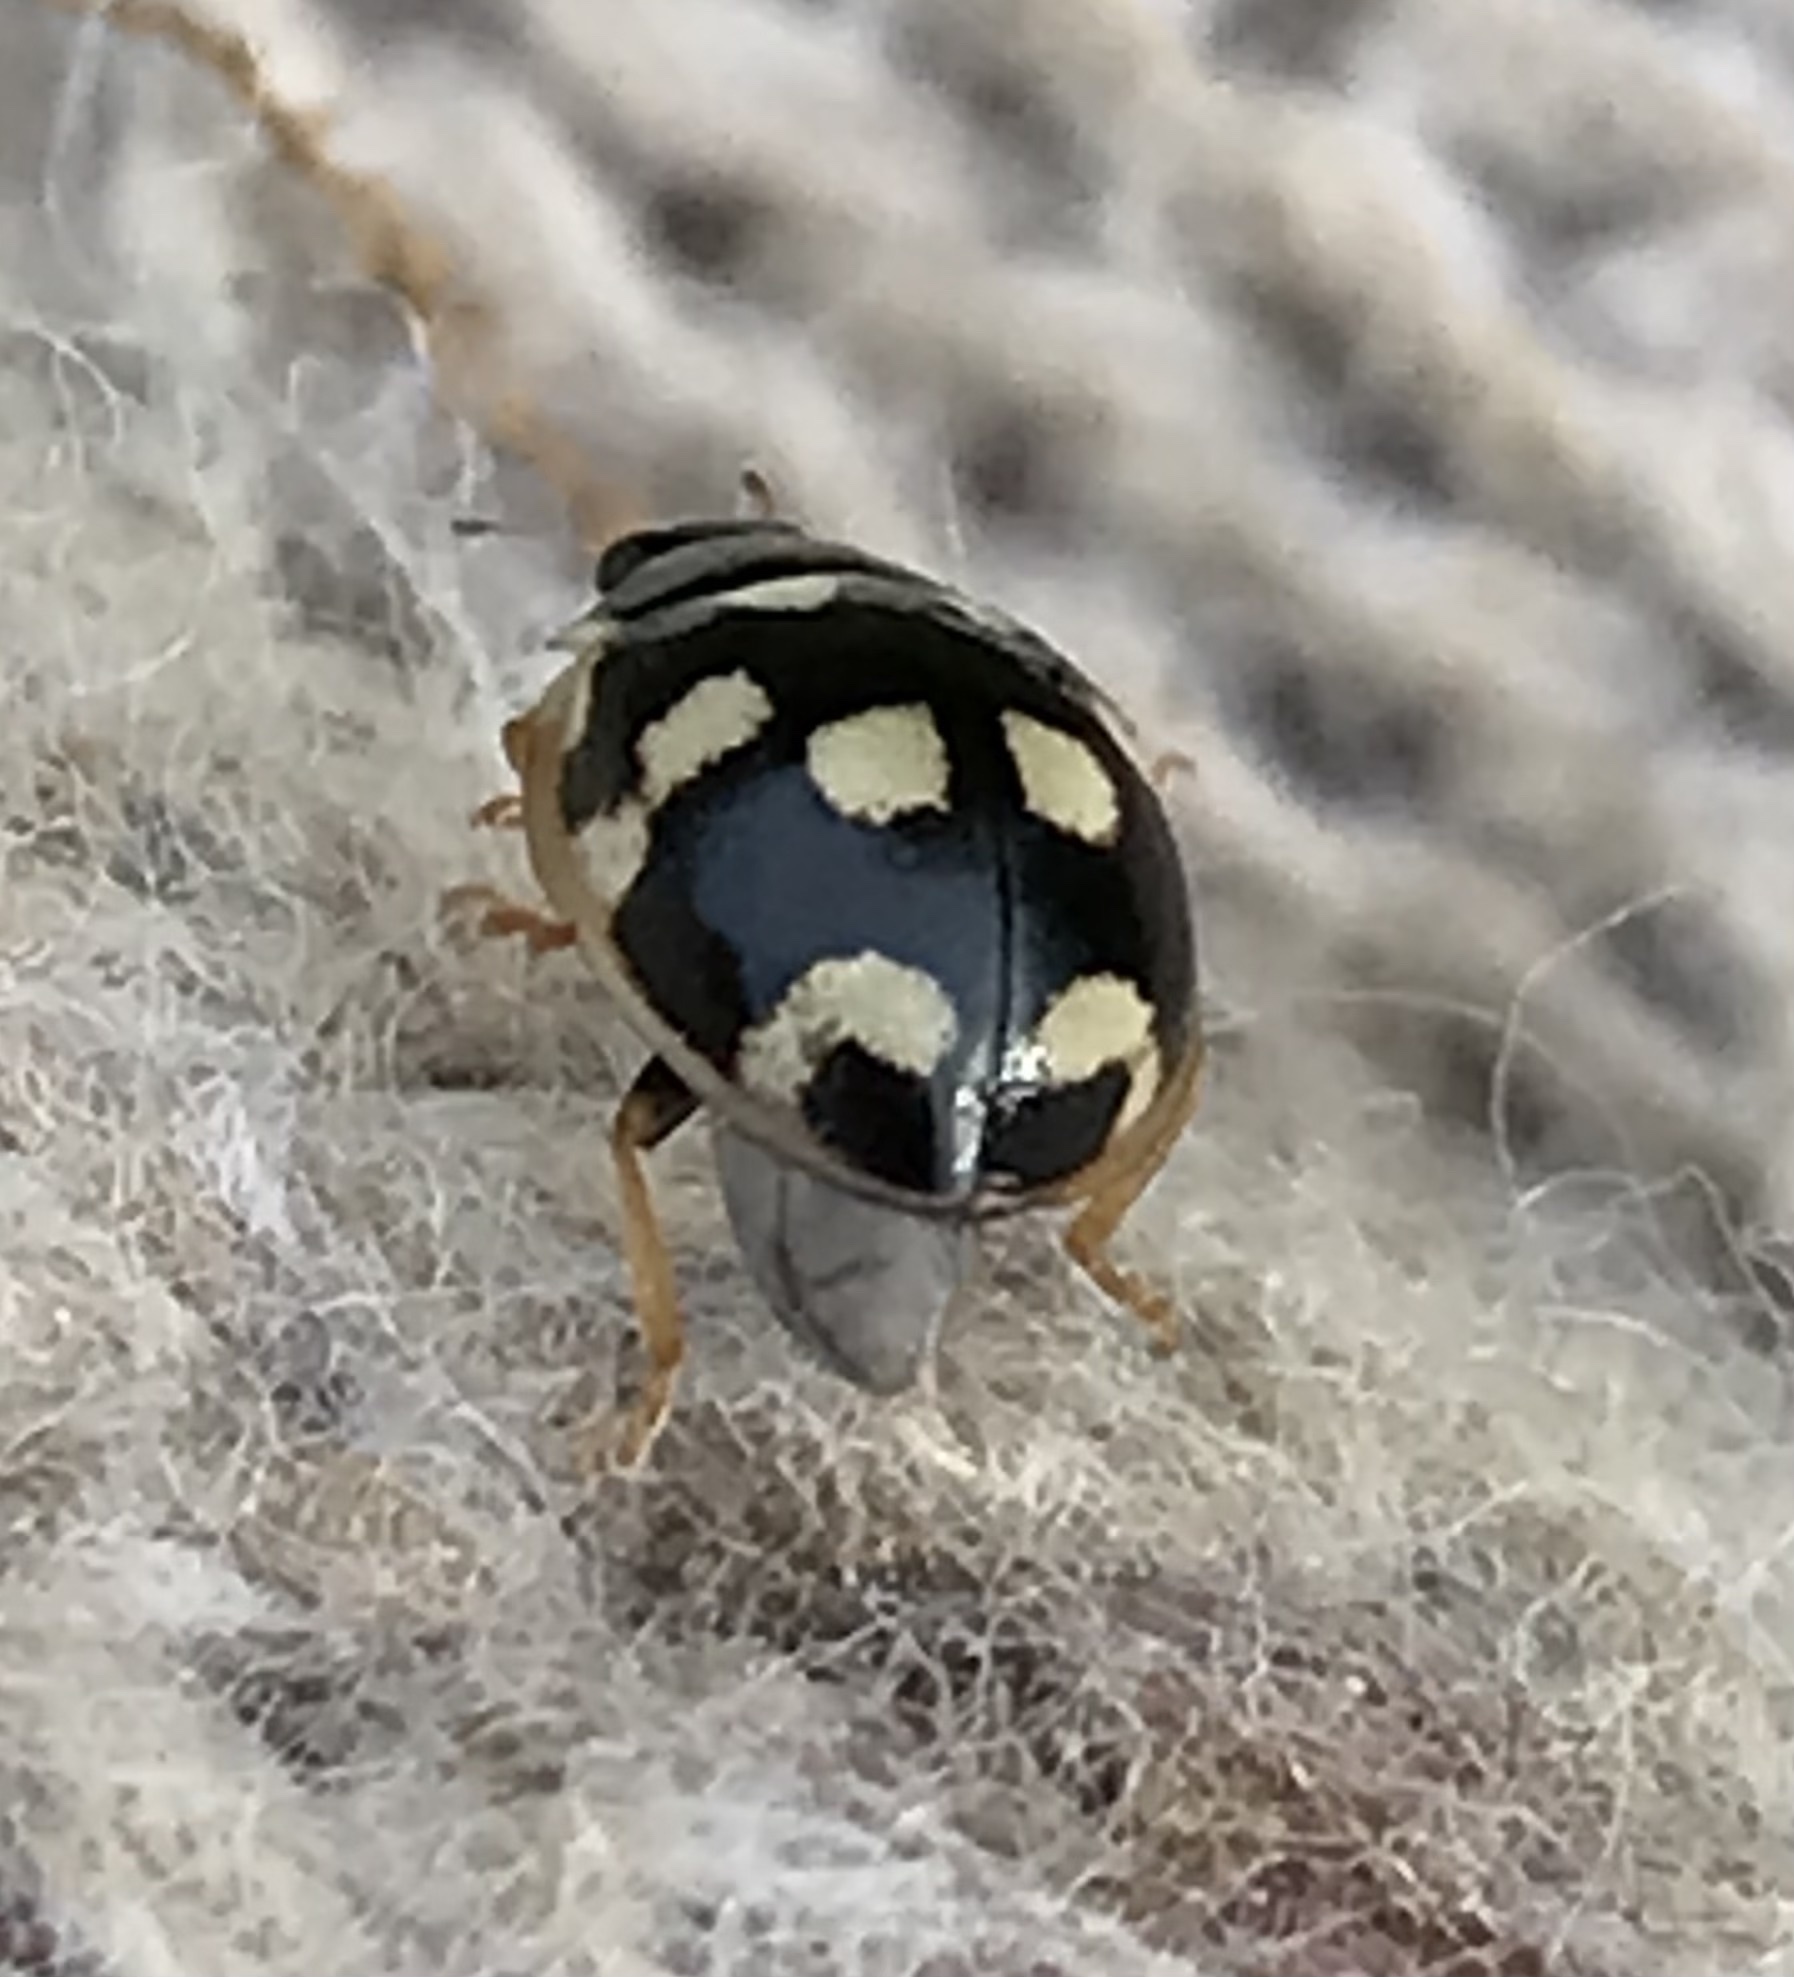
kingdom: Animalia
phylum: Arthropoda
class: Insecta
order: Coleoptera
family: Coccinellidae
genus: Propylaea
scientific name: Propylaea quatuordecimpunctata
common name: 14-spotted ladybird beetle
